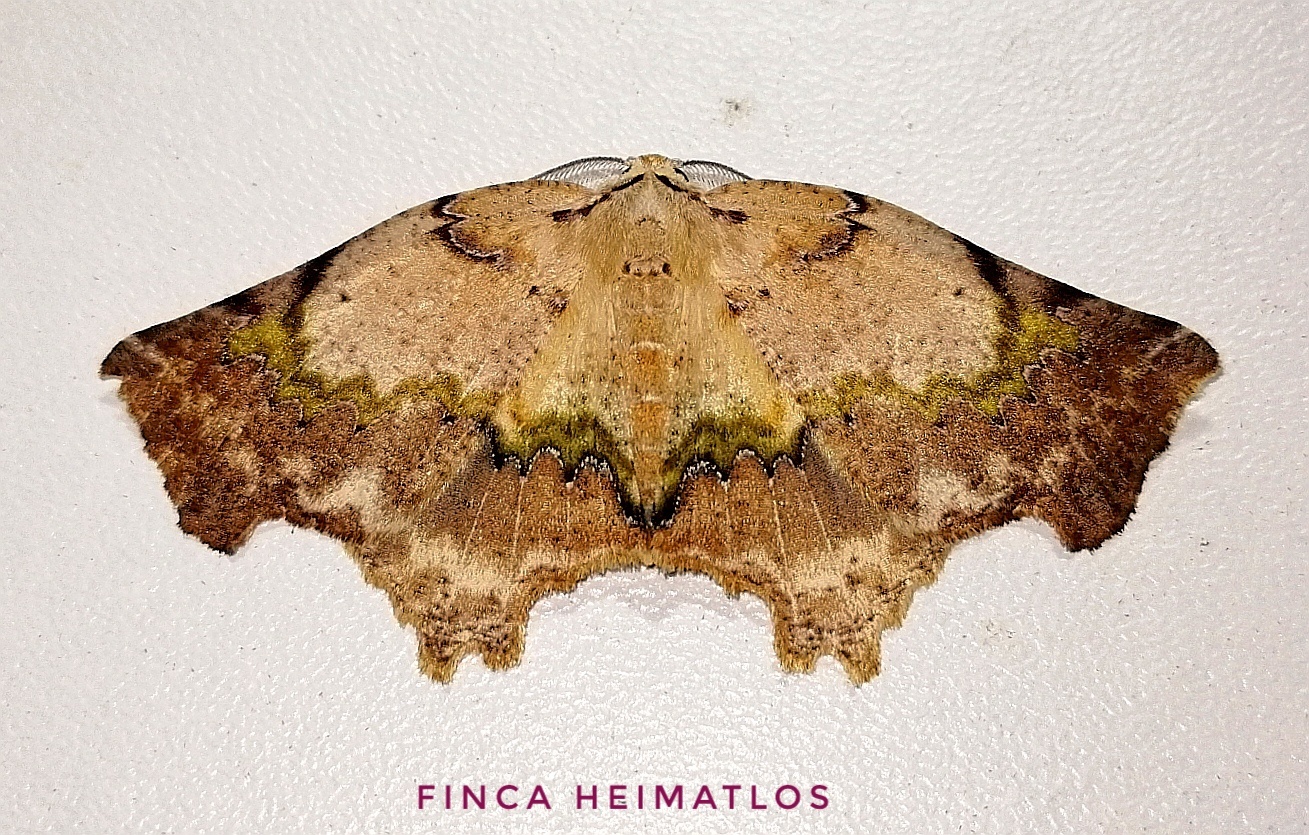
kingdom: Animalia
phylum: Arthropoda
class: Insecta
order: Lepidoptera
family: Geometridae
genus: Tmetomorpha
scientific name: Tmetomorpha bitias
